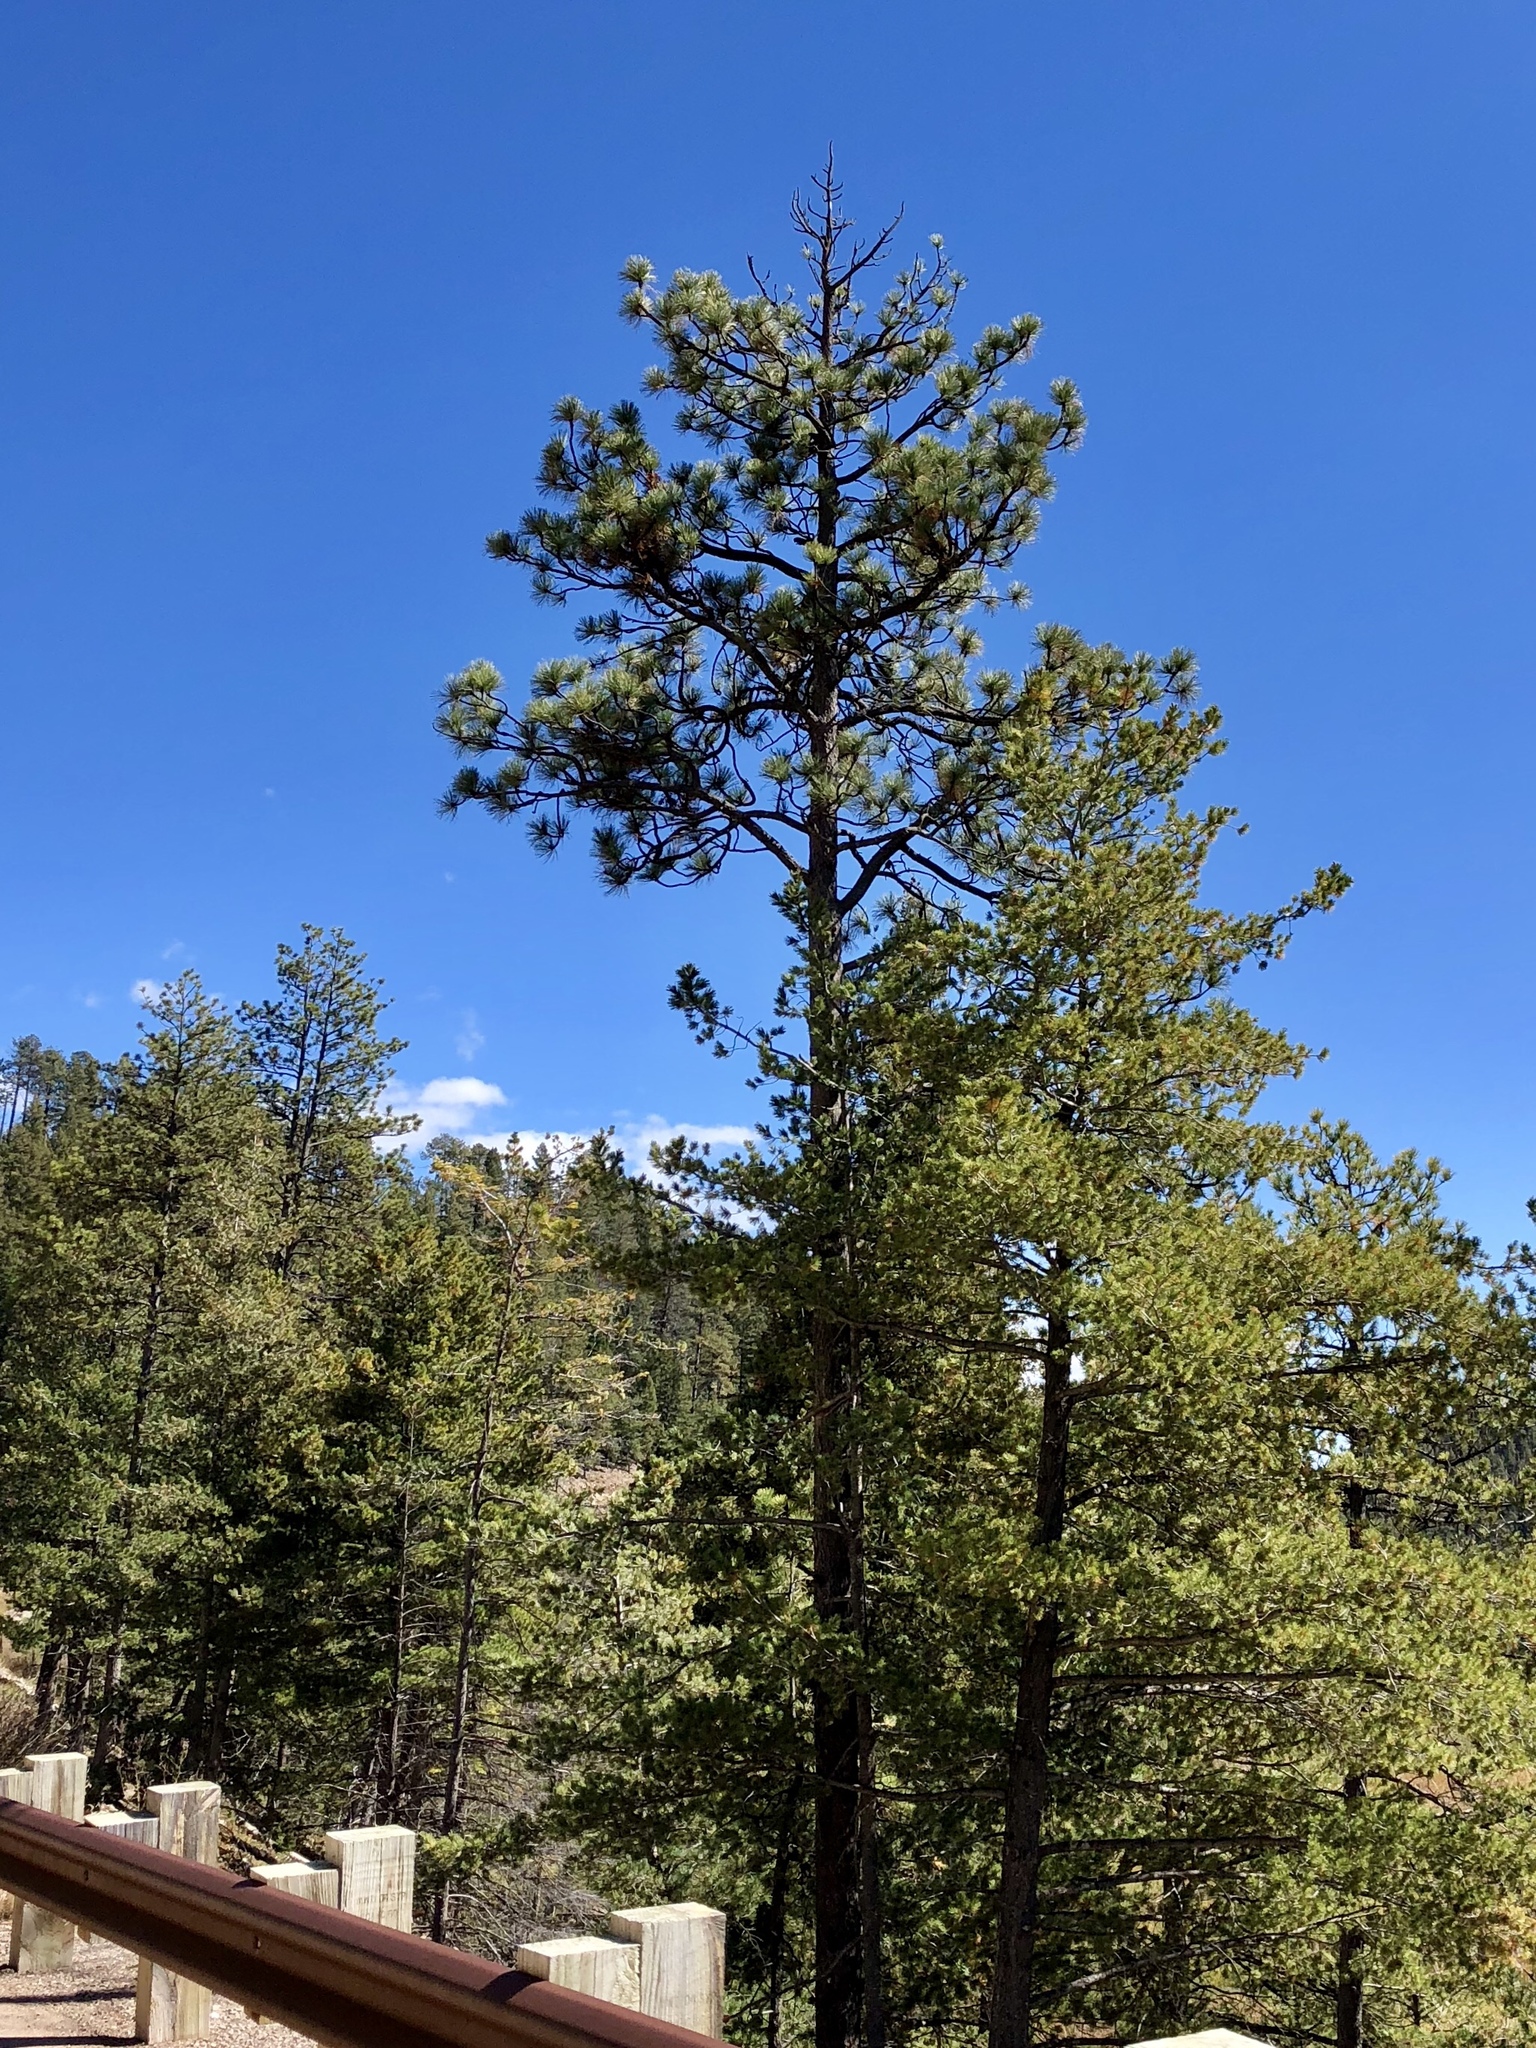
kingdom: Plantae
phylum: Tracheophyta
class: Pinopsida
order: Pinales
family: Pinaceae
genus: Pinus
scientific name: Pinus ponderosa
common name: Western yellow-pine
